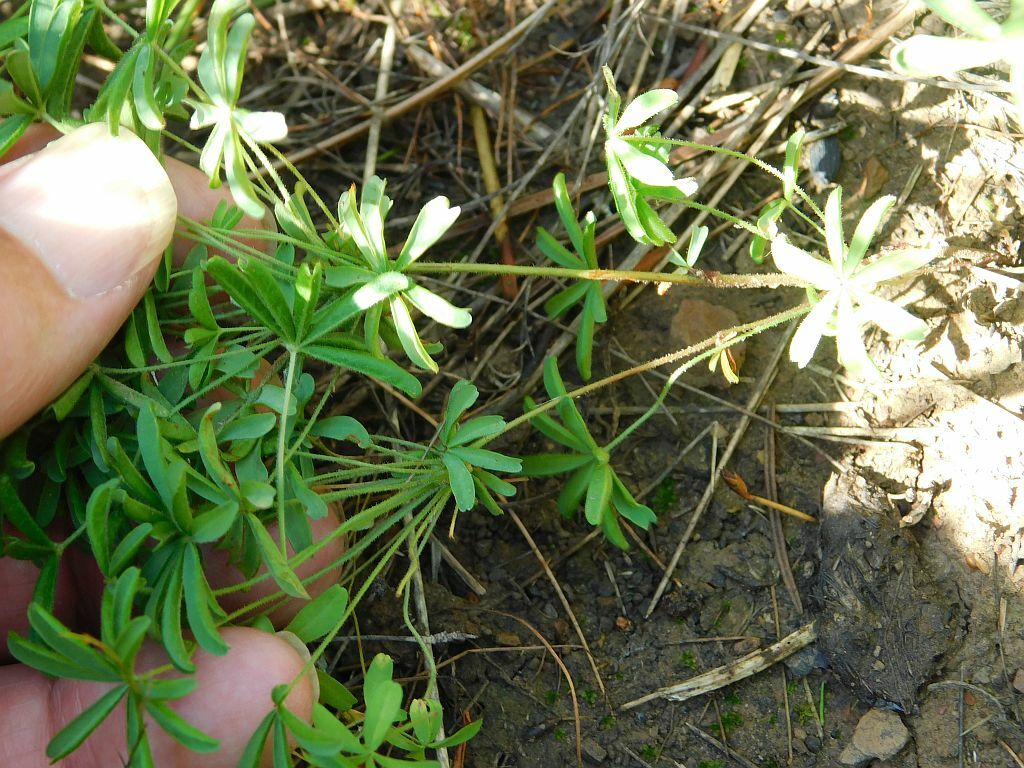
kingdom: Plantae
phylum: Tracheophyta
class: Magnoliopsida
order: Oxalidales
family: Oxalidaceae
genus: Oxalis
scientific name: Oxalis engleriana
